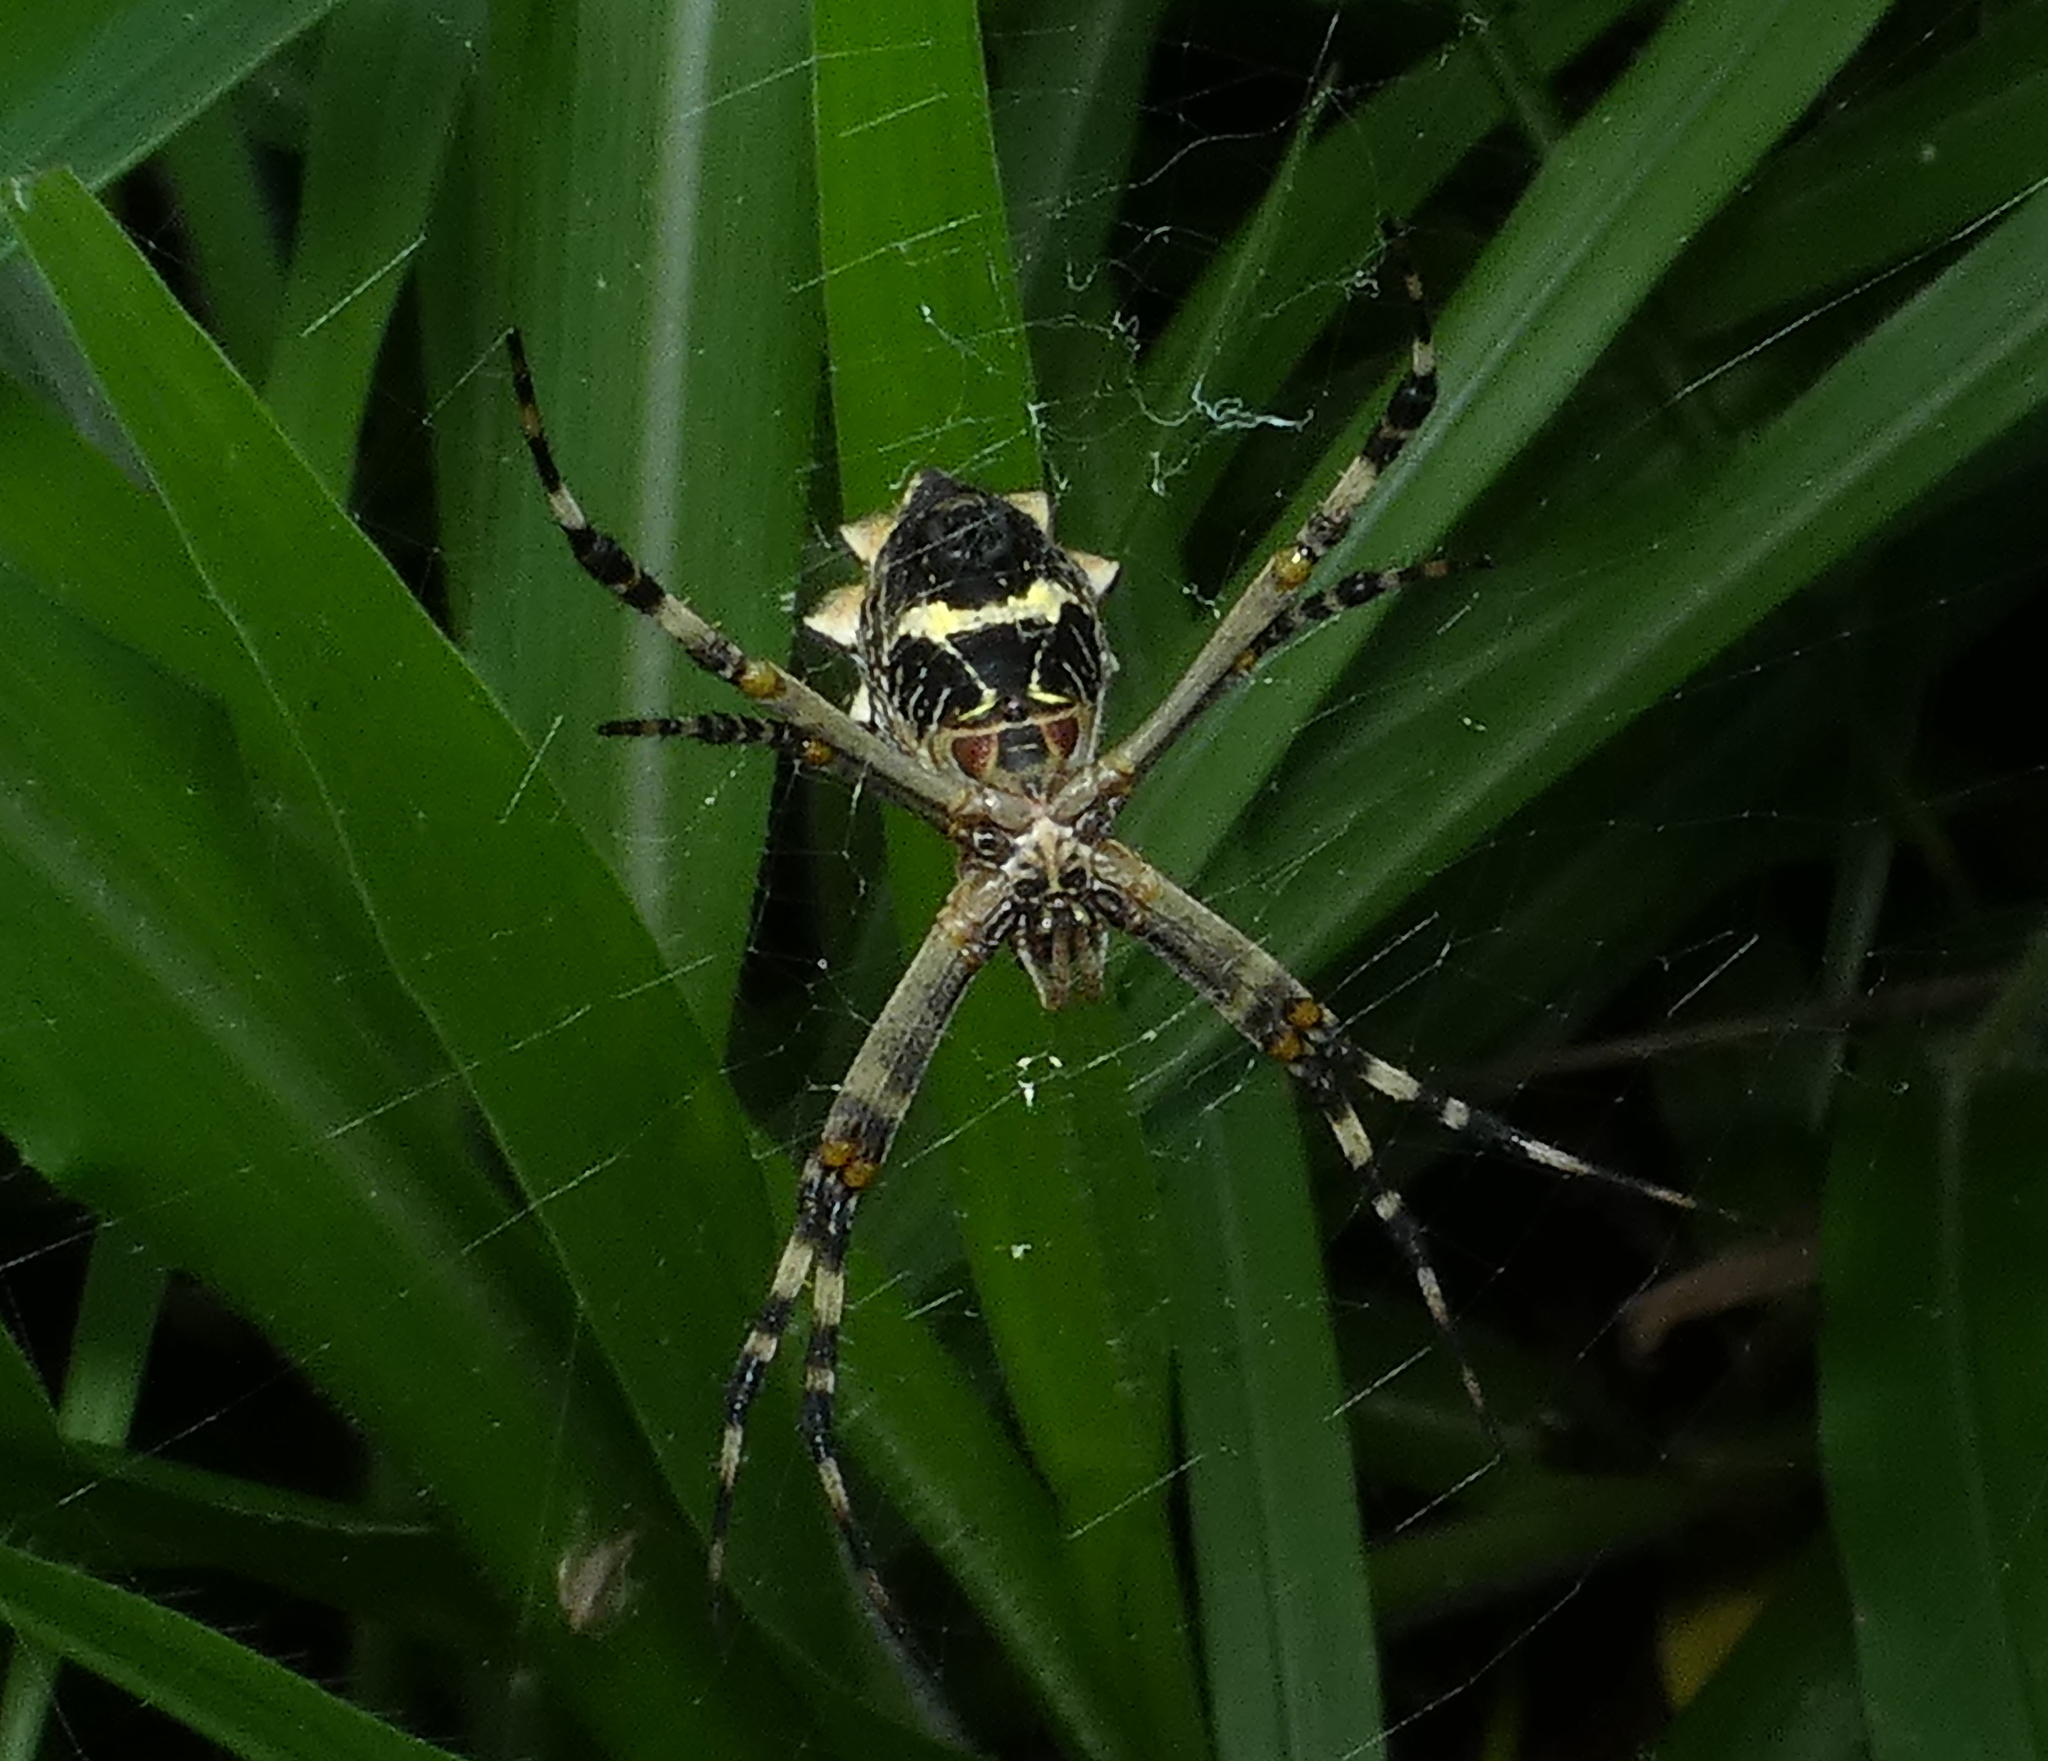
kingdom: Animalia
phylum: Arthropoda
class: Arachnida
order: Araneae
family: Araneidae
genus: Argiope
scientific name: Argiope argentata
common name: Orb weavers
